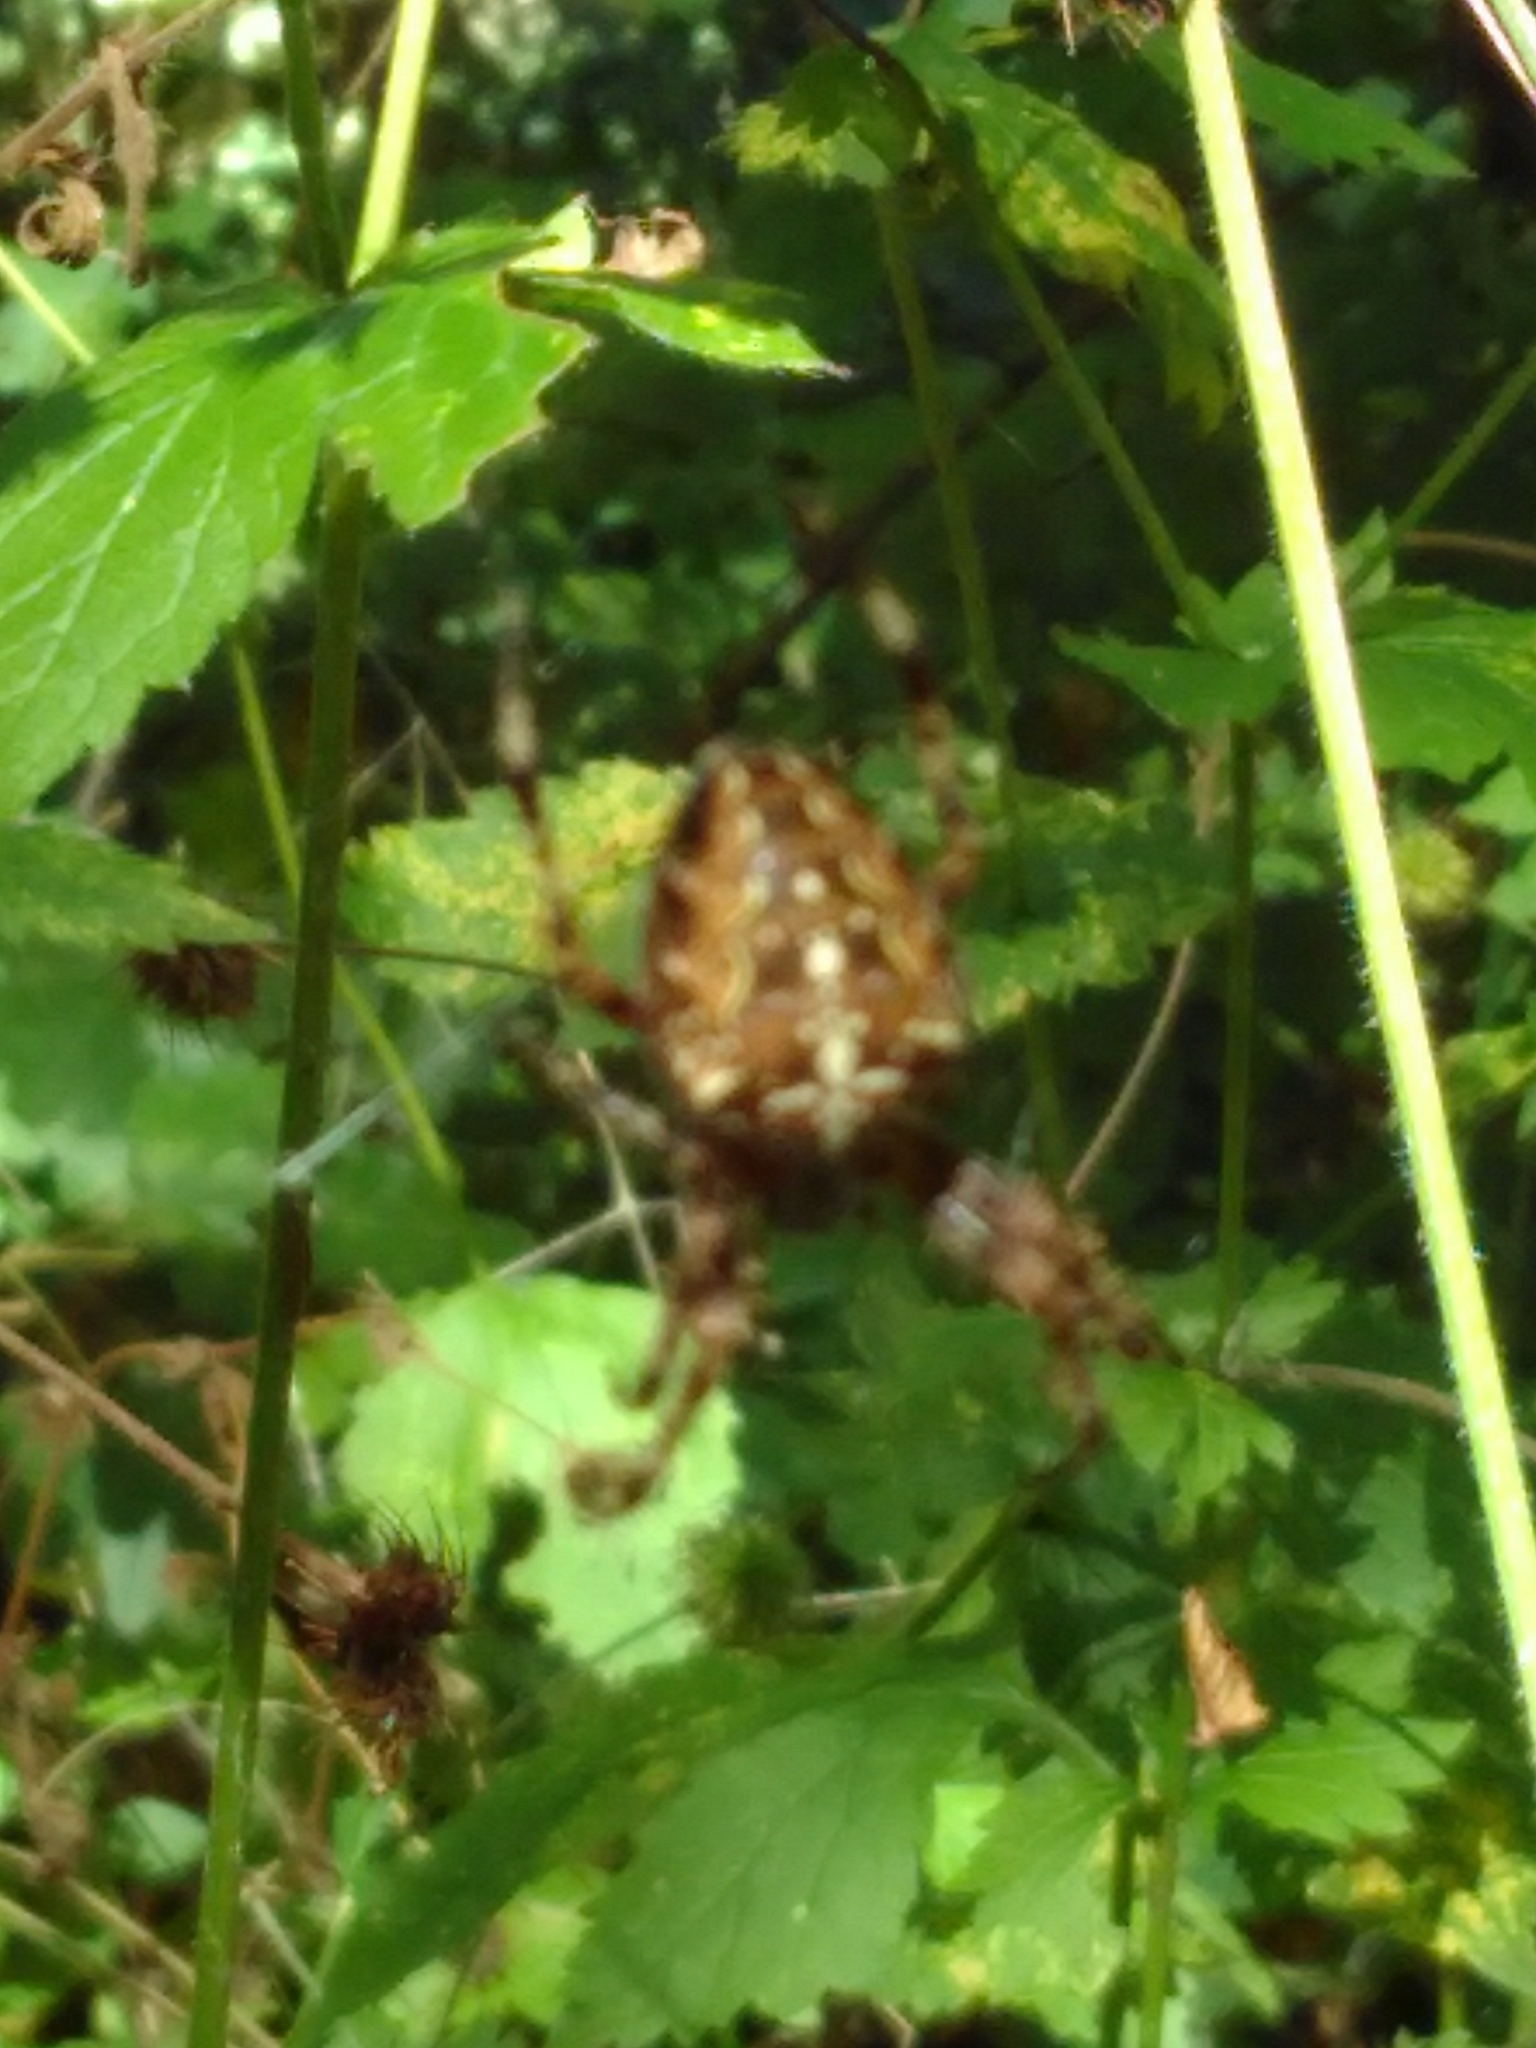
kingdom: Animalia
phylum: Arthropoda
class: Arachnida
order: Araneae
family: Araneidae
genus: Araneus
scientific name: Araneus diadematus
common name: Cross orbweaver
